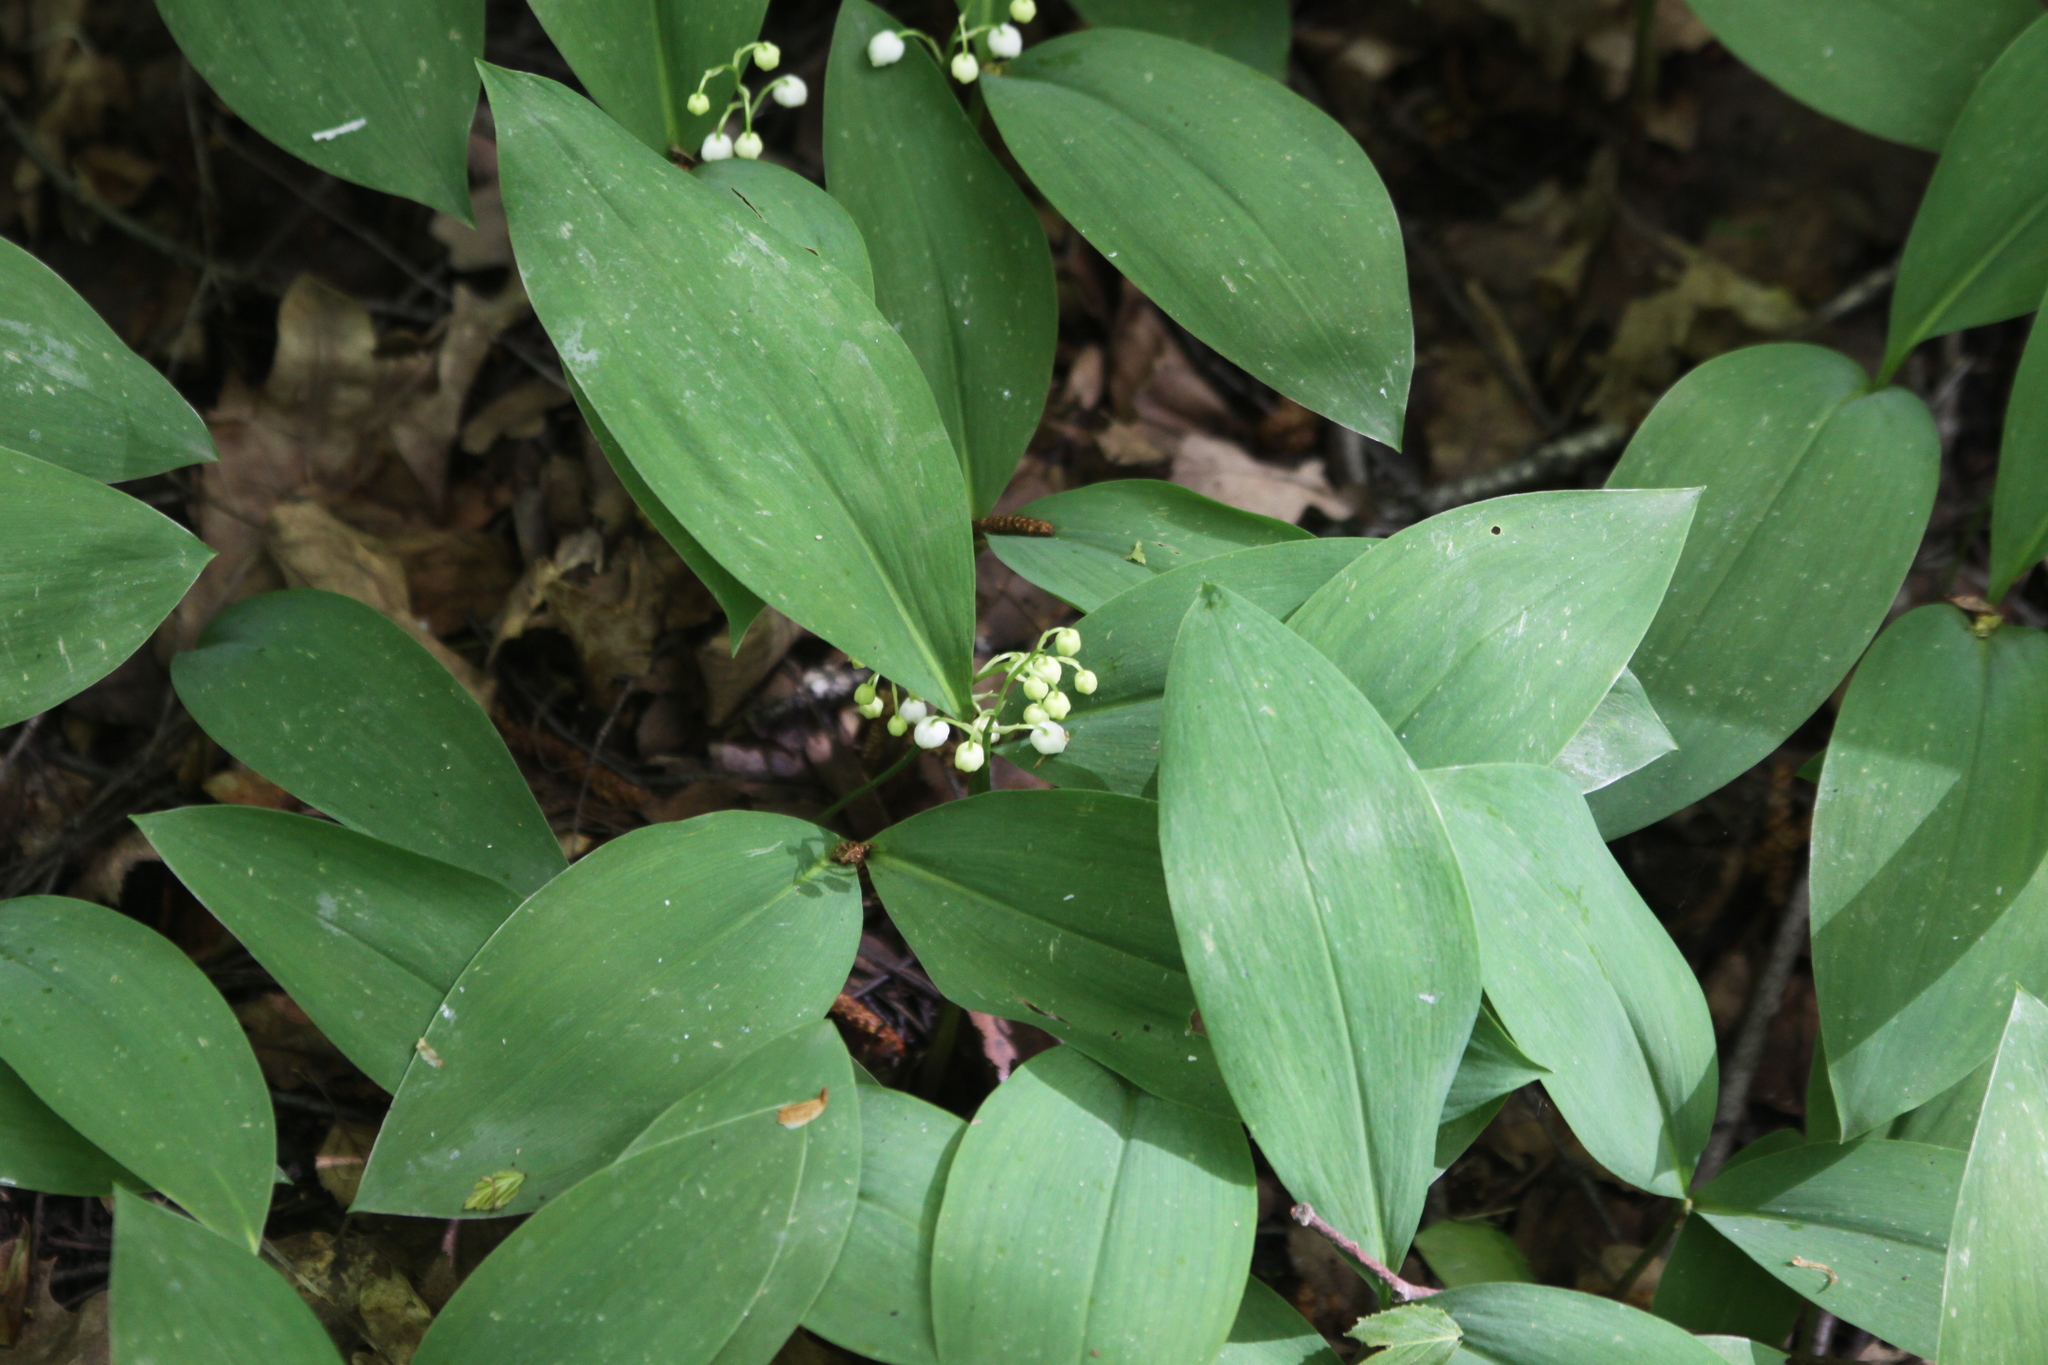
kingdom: Plantae
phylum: Tracheophyta
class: Liliopsida
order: Asparagales
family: Asparagaceae
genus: Convallaria
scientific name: Convallaria majalis
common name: Lily-of-the-valley
